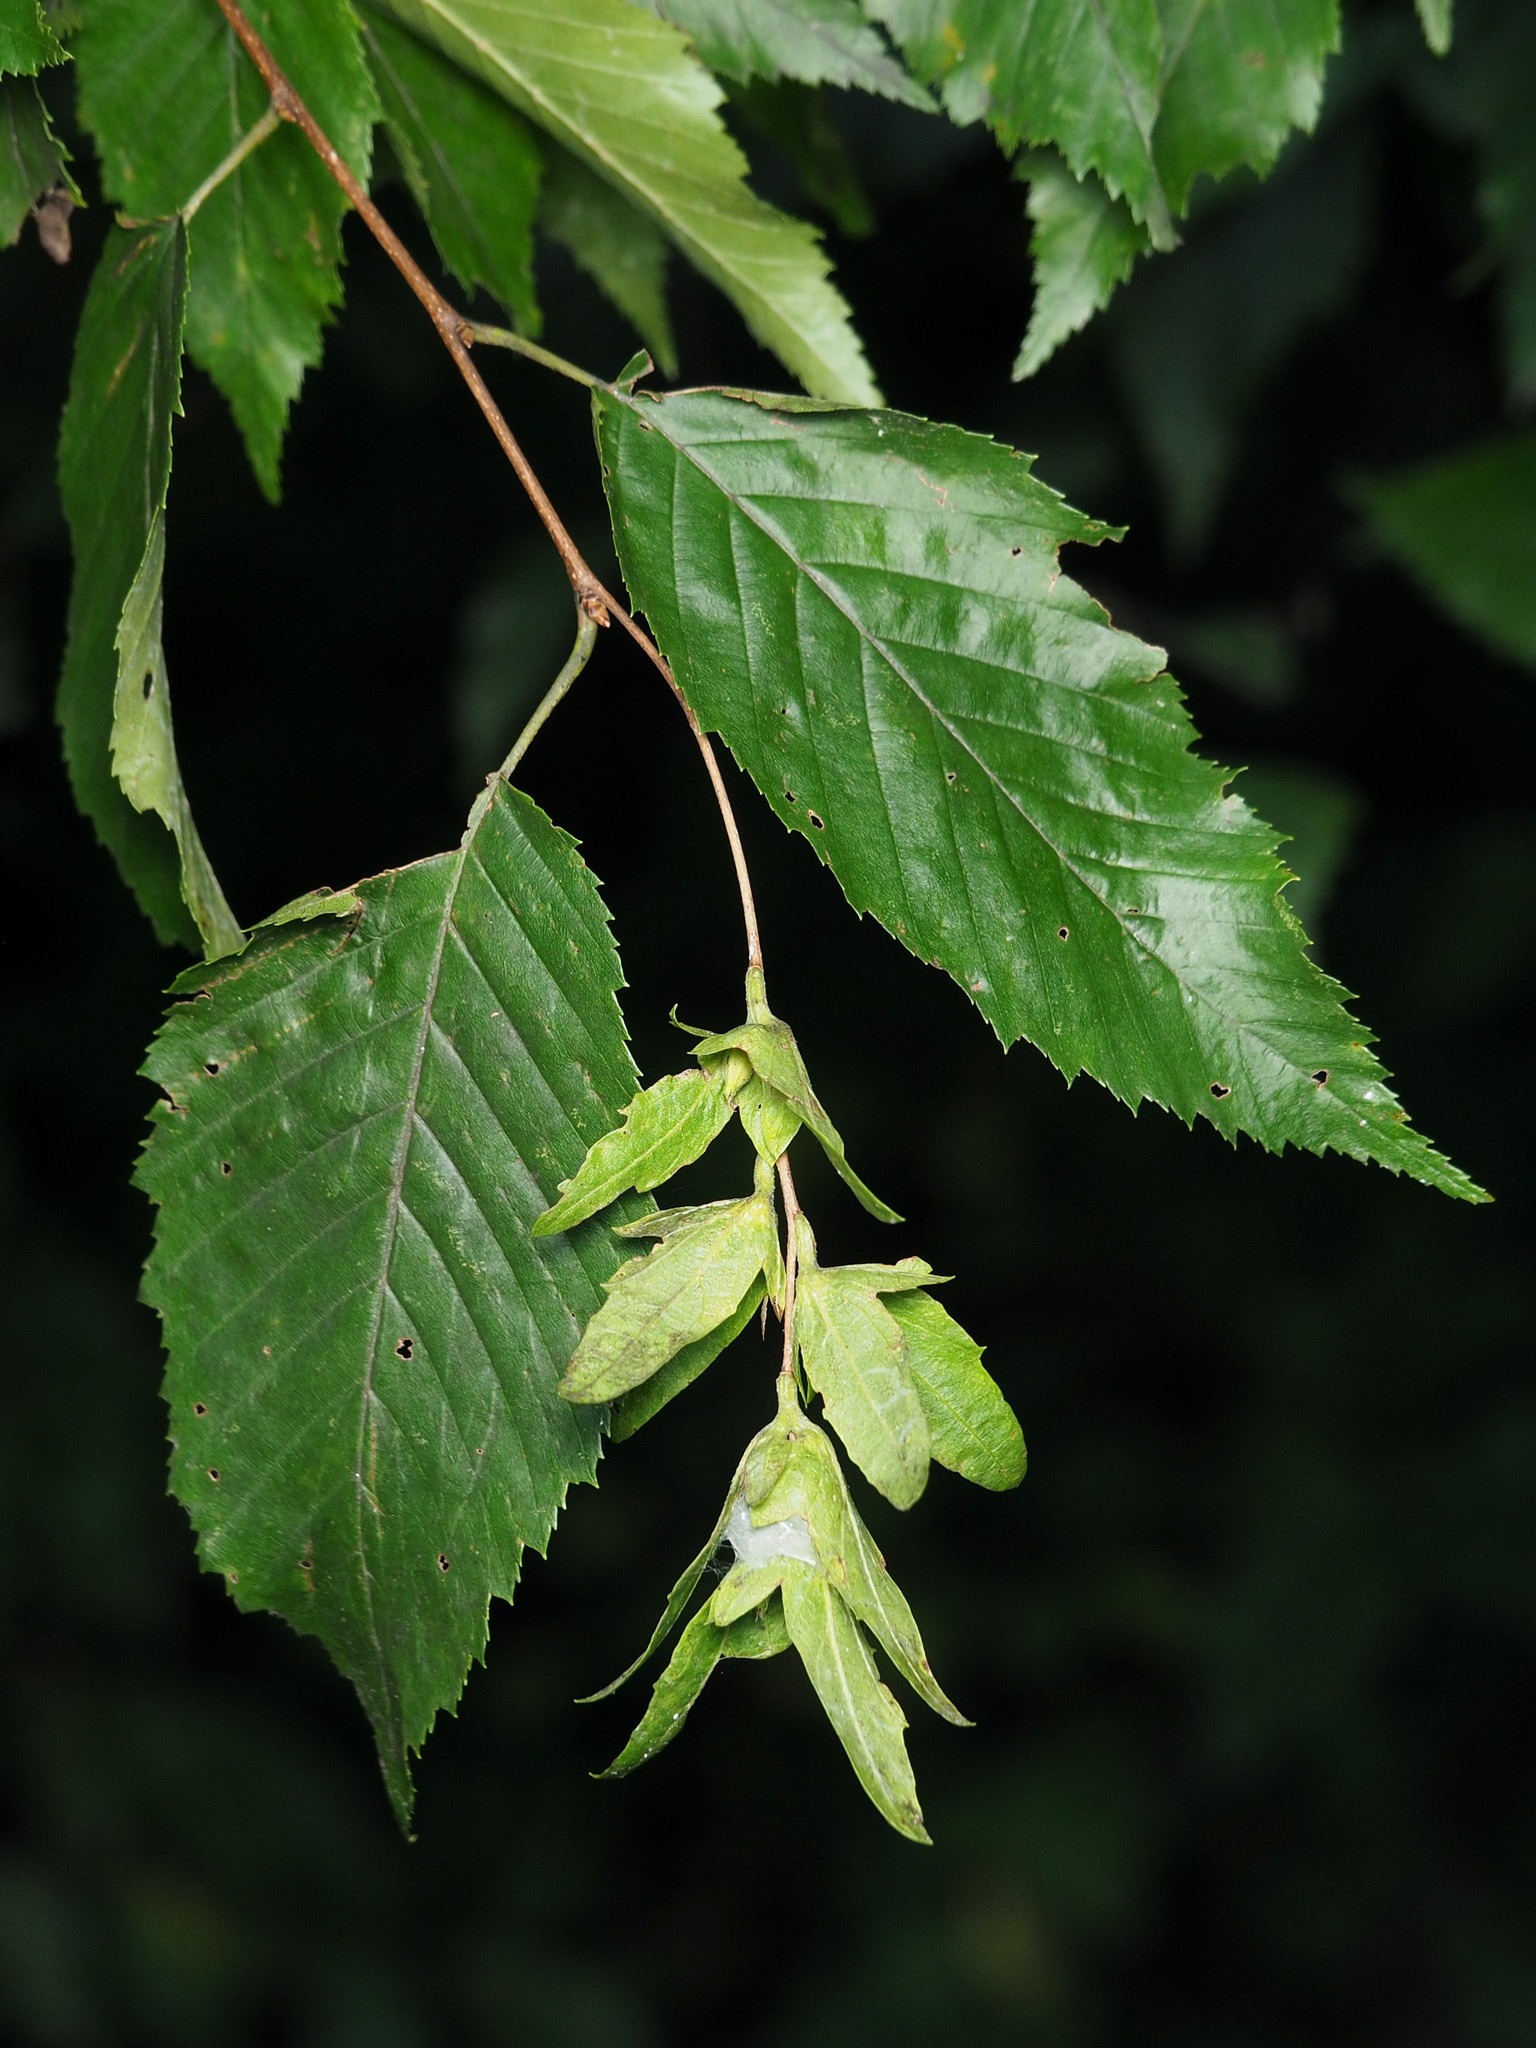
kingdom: Plantae
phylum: Tracheophyta
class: Magnoliopsida
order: Fagales
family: Betulaceae
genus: Carpinus
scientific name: Carpinus caroliniana
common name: American hornbeam
